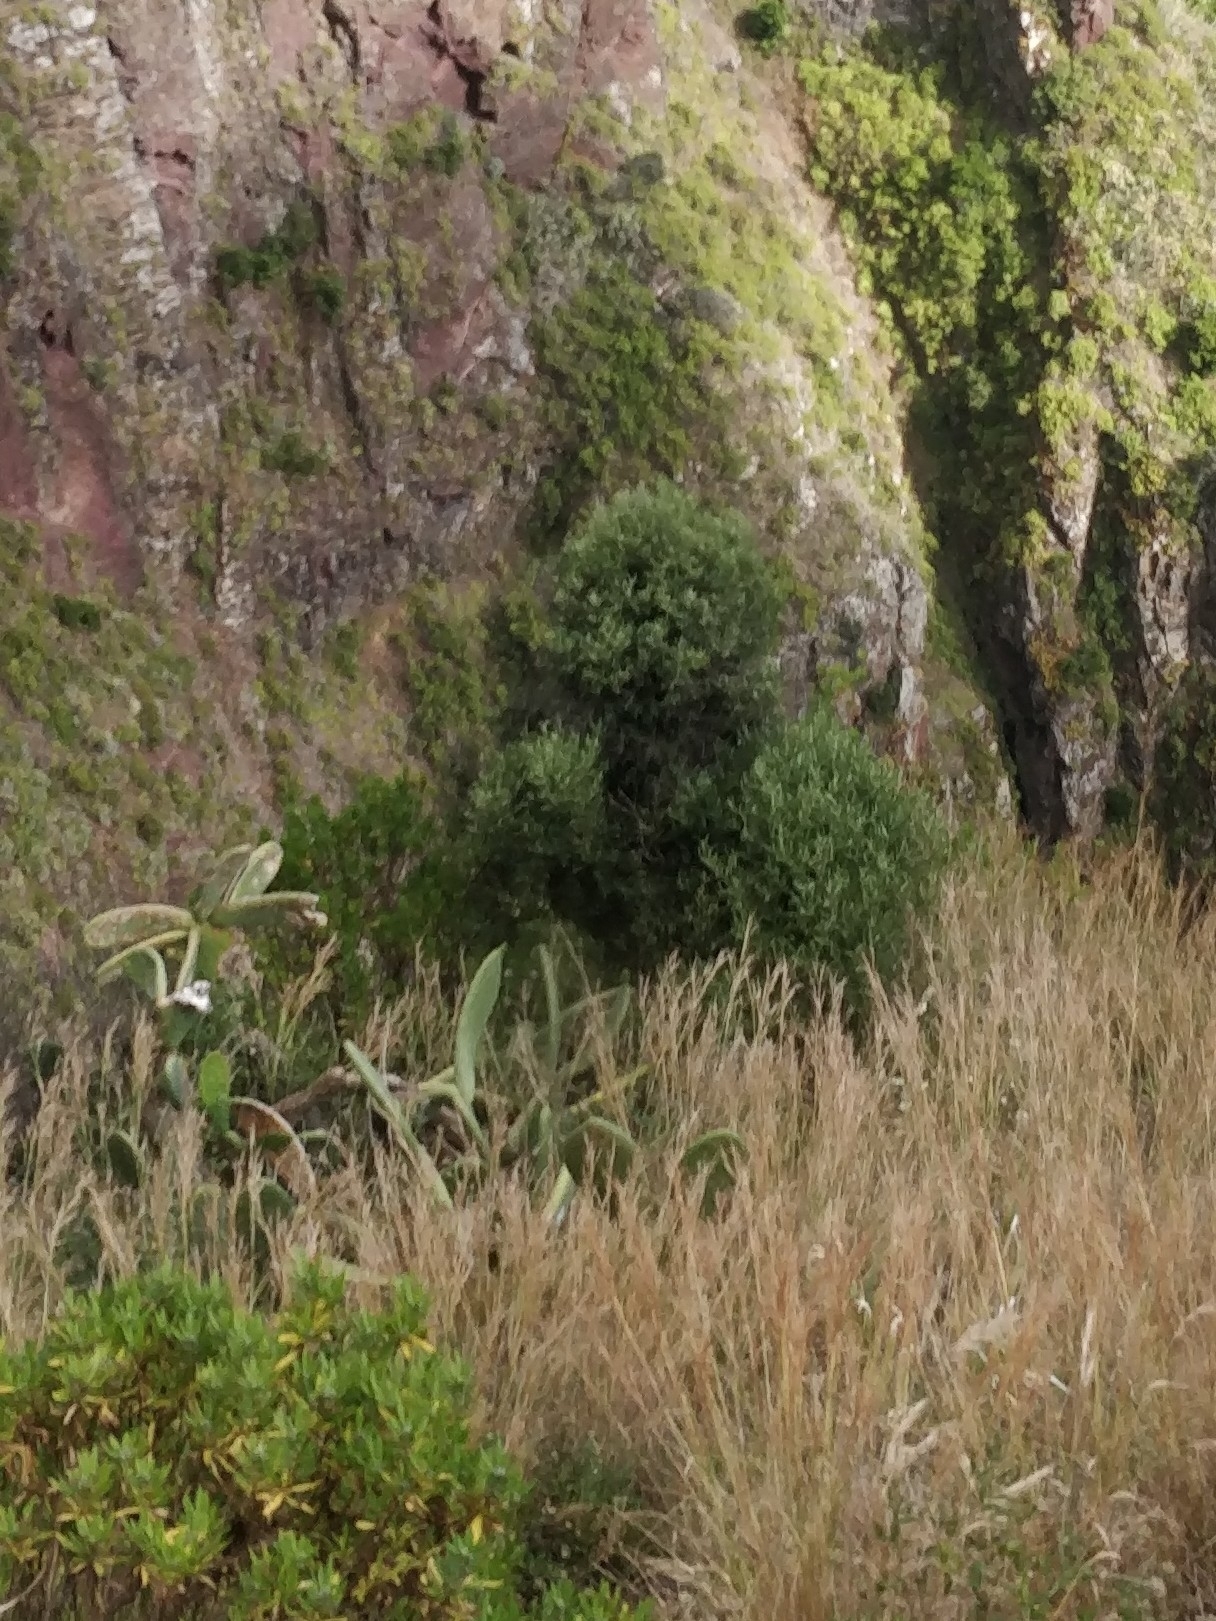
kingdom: Plantae
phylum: Tracheophyta
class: Magnoliopsida
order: Lamiales
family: Oleaceae
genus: Olea
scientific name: Olea europaea
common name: Olive
